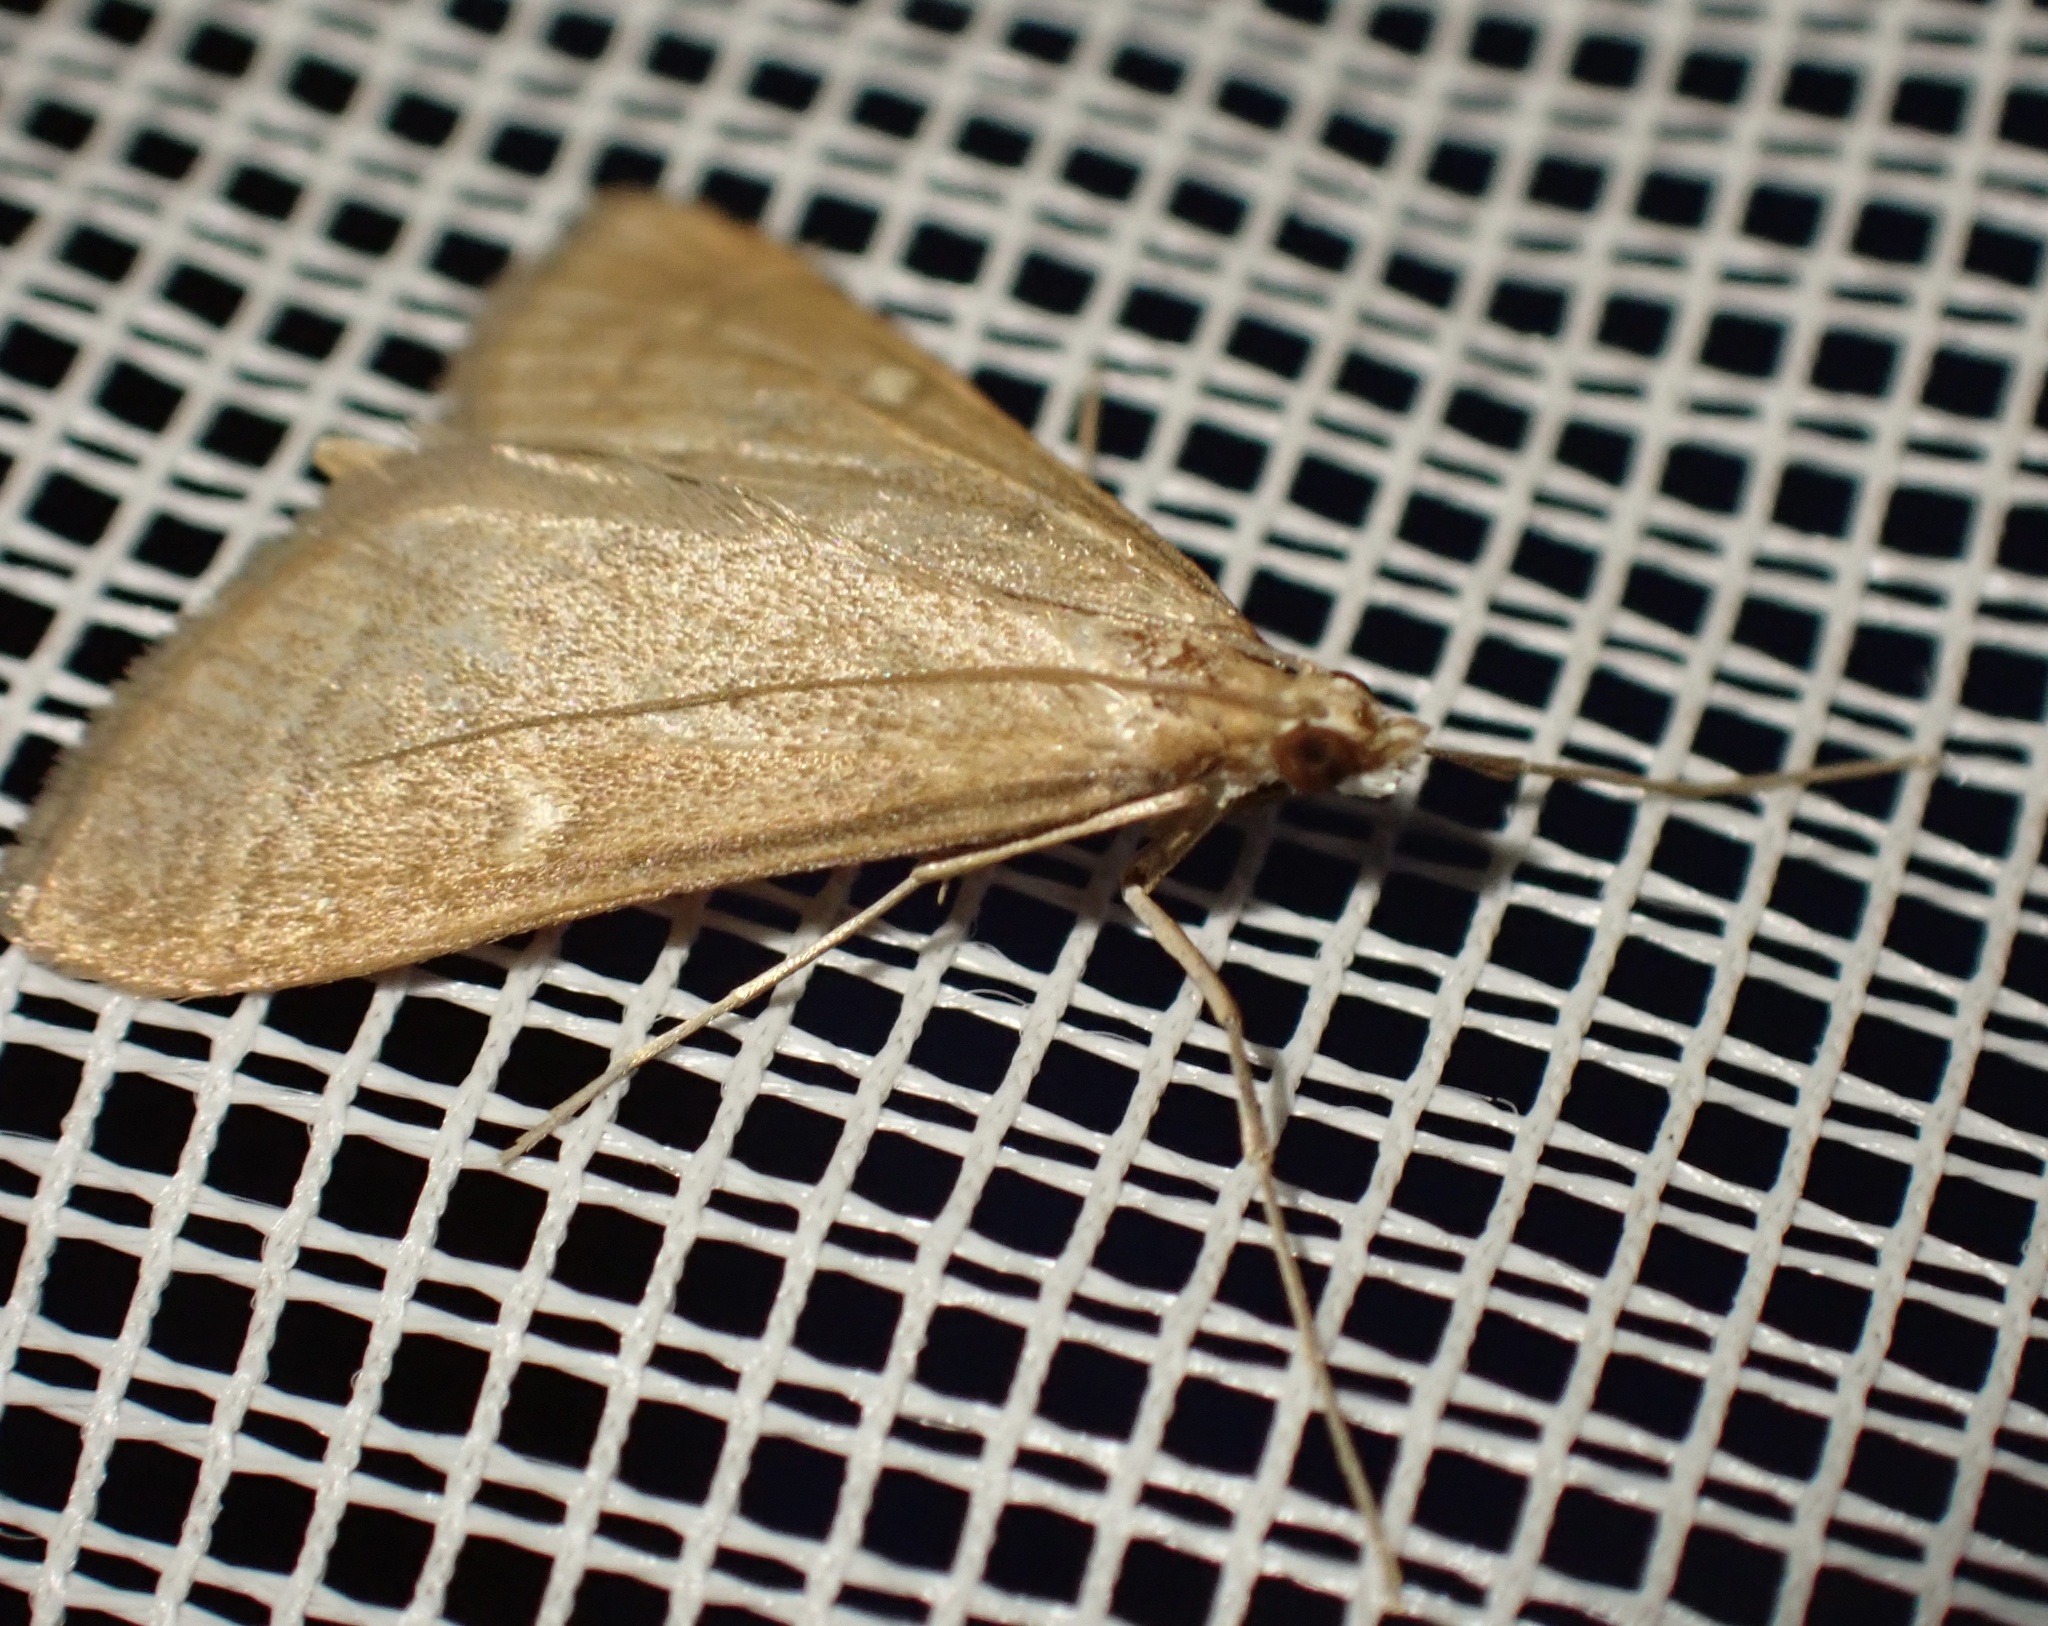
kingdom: Animalia
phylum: Arthropoda
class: Insecta
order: Lepidoptera
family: Crambidae
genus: Stenia
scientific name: Stenia Dolicharthria punctalis
